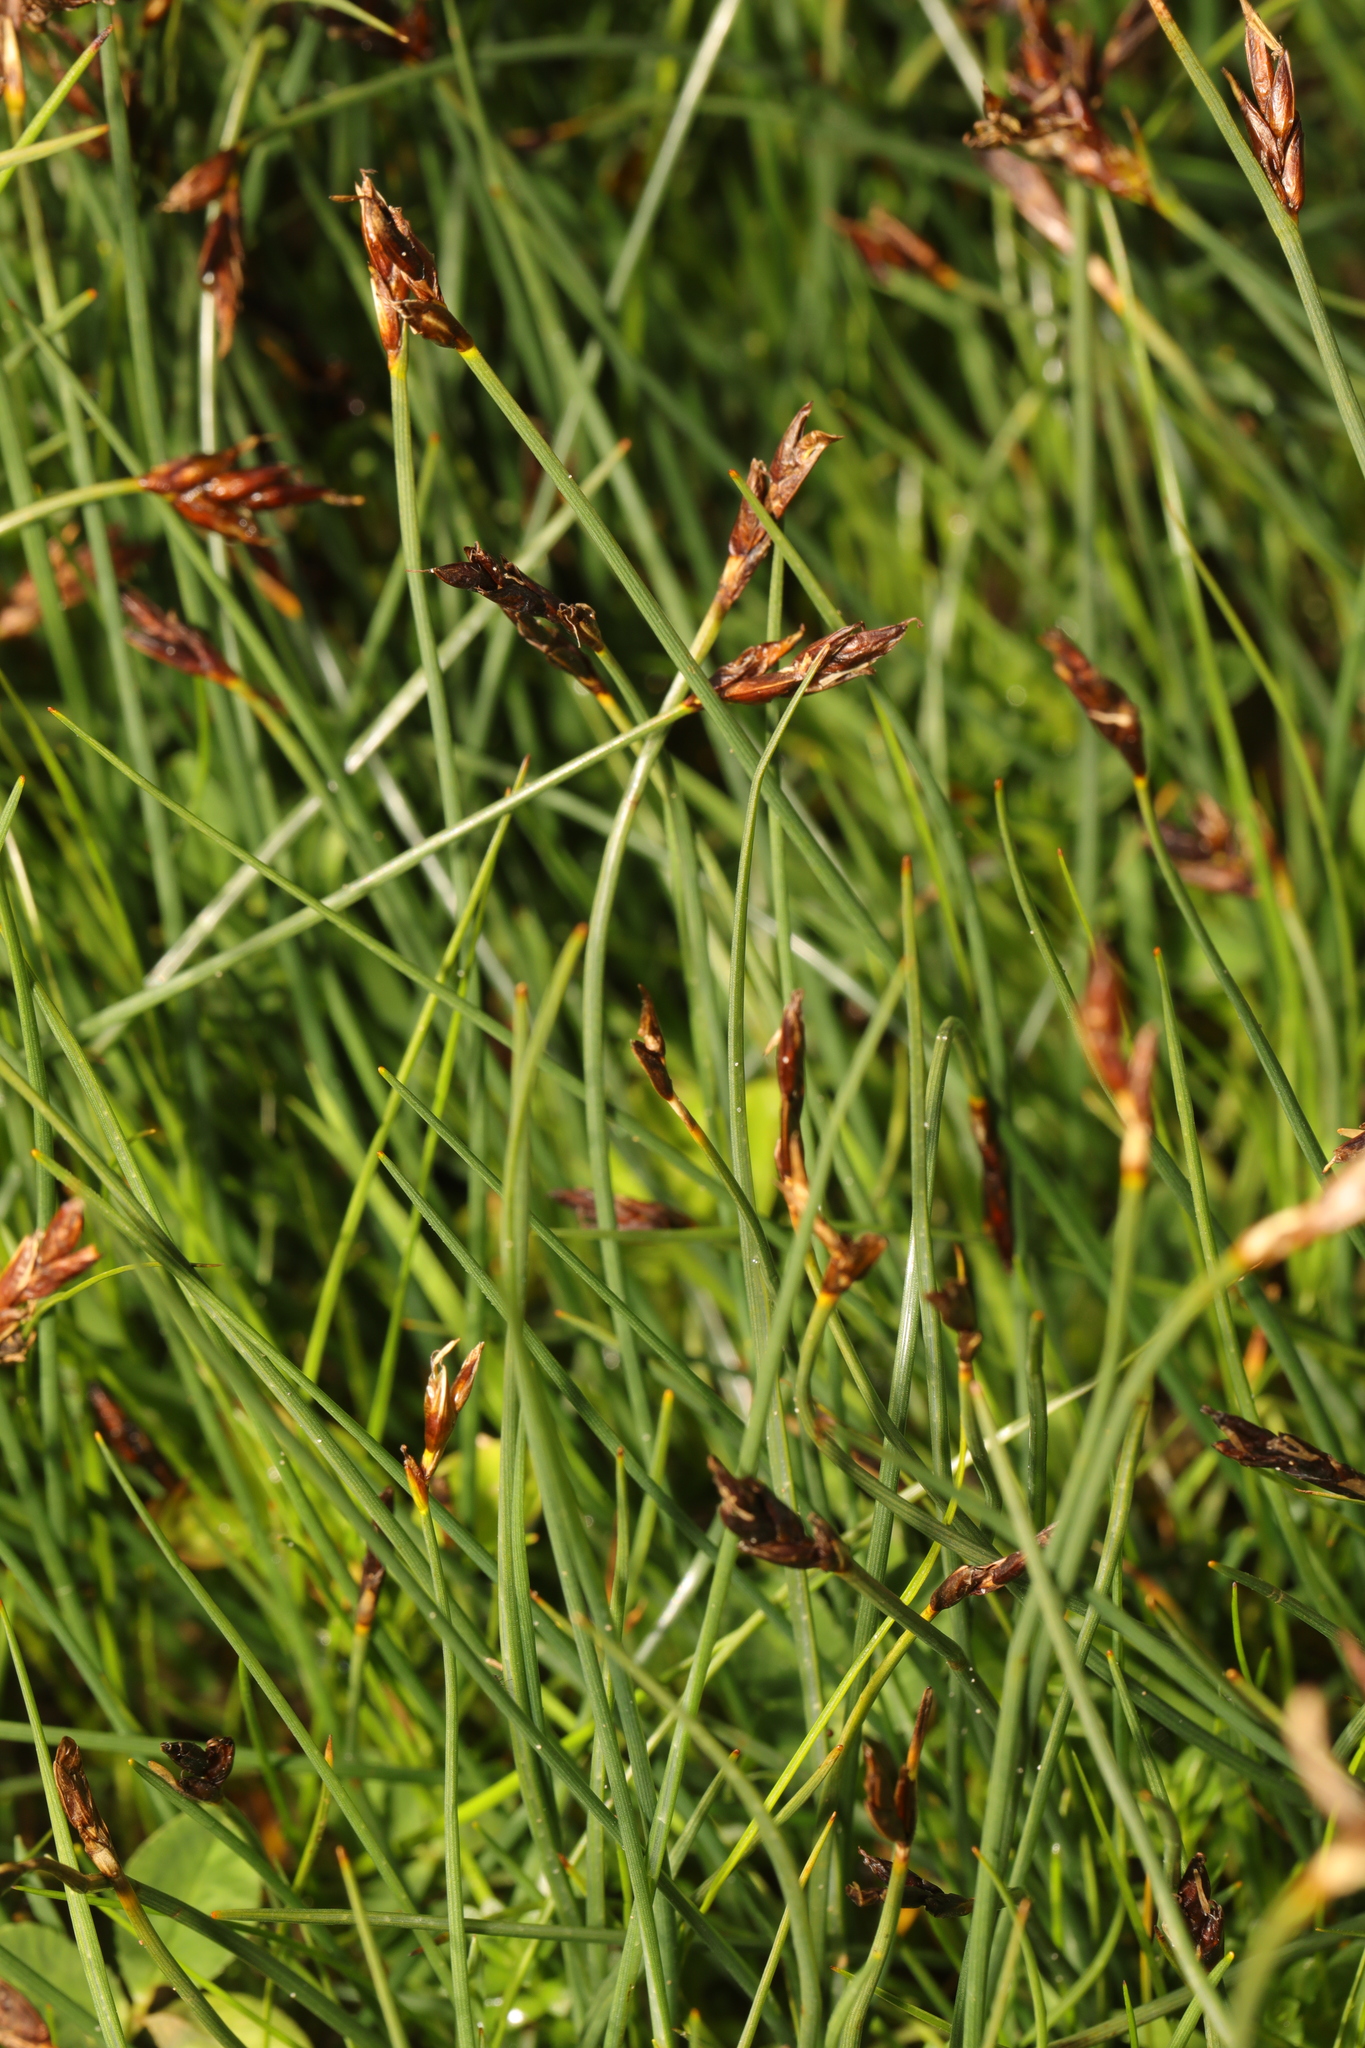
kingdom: Plantae
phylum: Tracheophyta
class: Liliopsida
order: Poales
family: Cyperaceae
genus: Eleocharis
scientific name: Eleocharis multicaulis
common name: Many-stalked spike-rush
